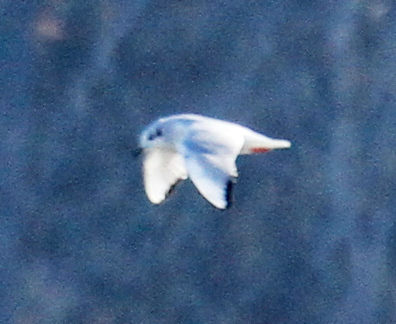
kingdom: Animalia
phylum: Chordata
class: Aves
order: Charadriiformes
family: Laridae
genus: Chroicocephalus
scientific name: Chroicocephalus philadelphia
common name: Bonaparte's gull
